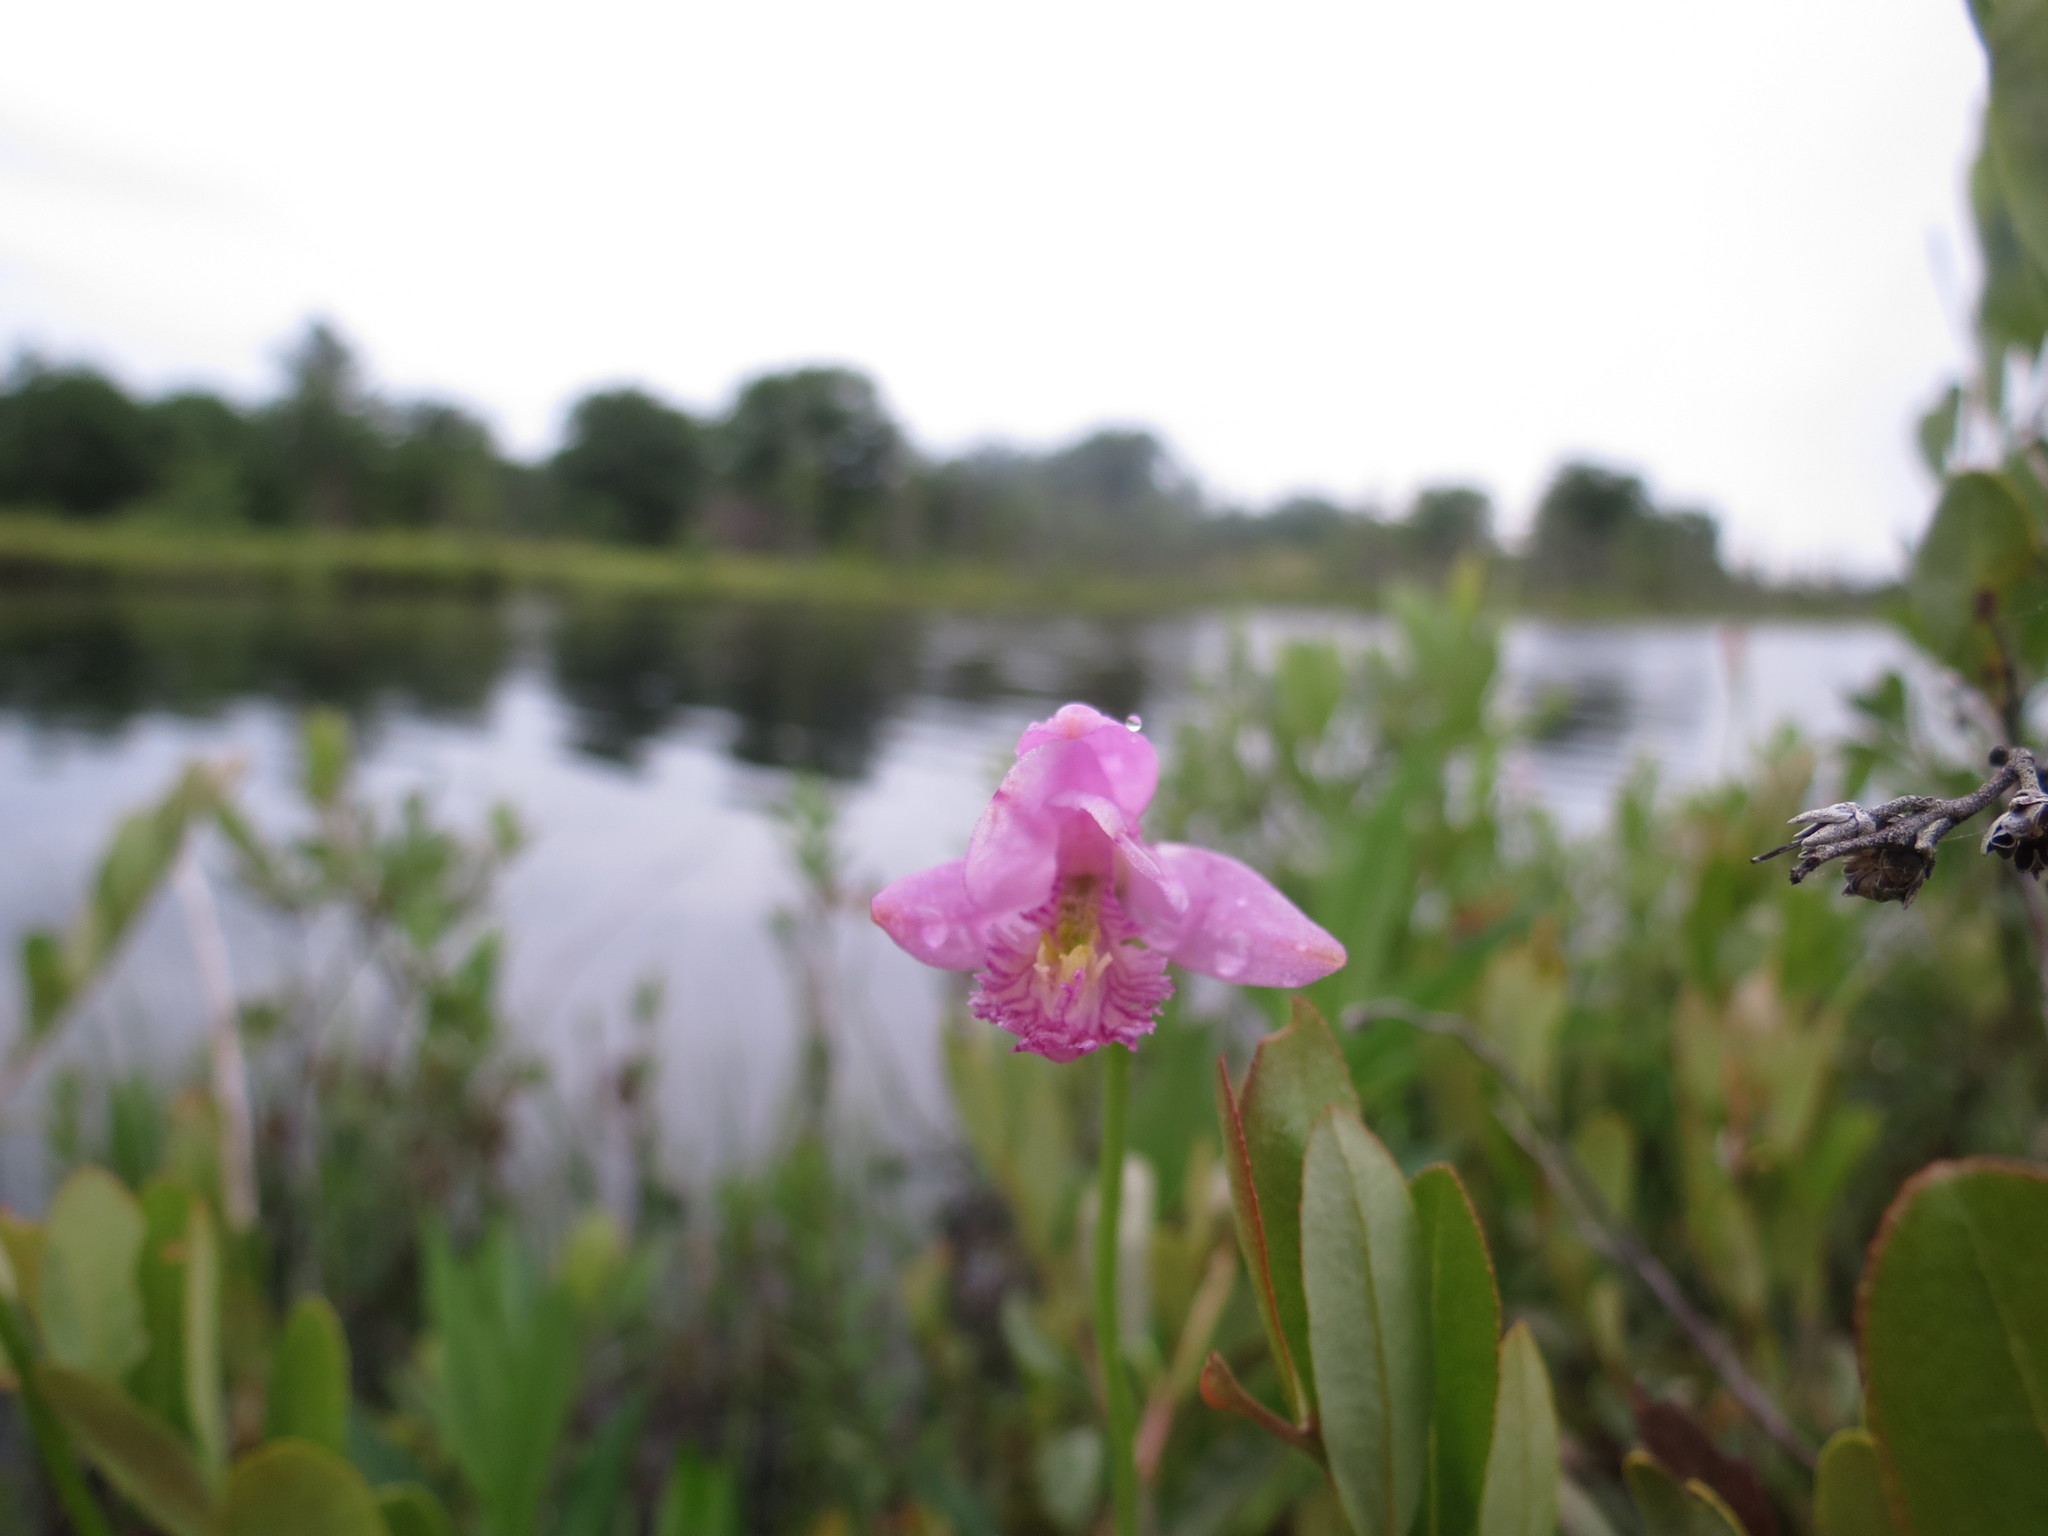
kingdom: Plantae
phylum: Tracheophyta
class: Liliopsida
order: Asparagales
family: Orchidaceae
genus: Pogonia
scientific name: Pogonia ophioglossoides
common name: Rose pogonia
